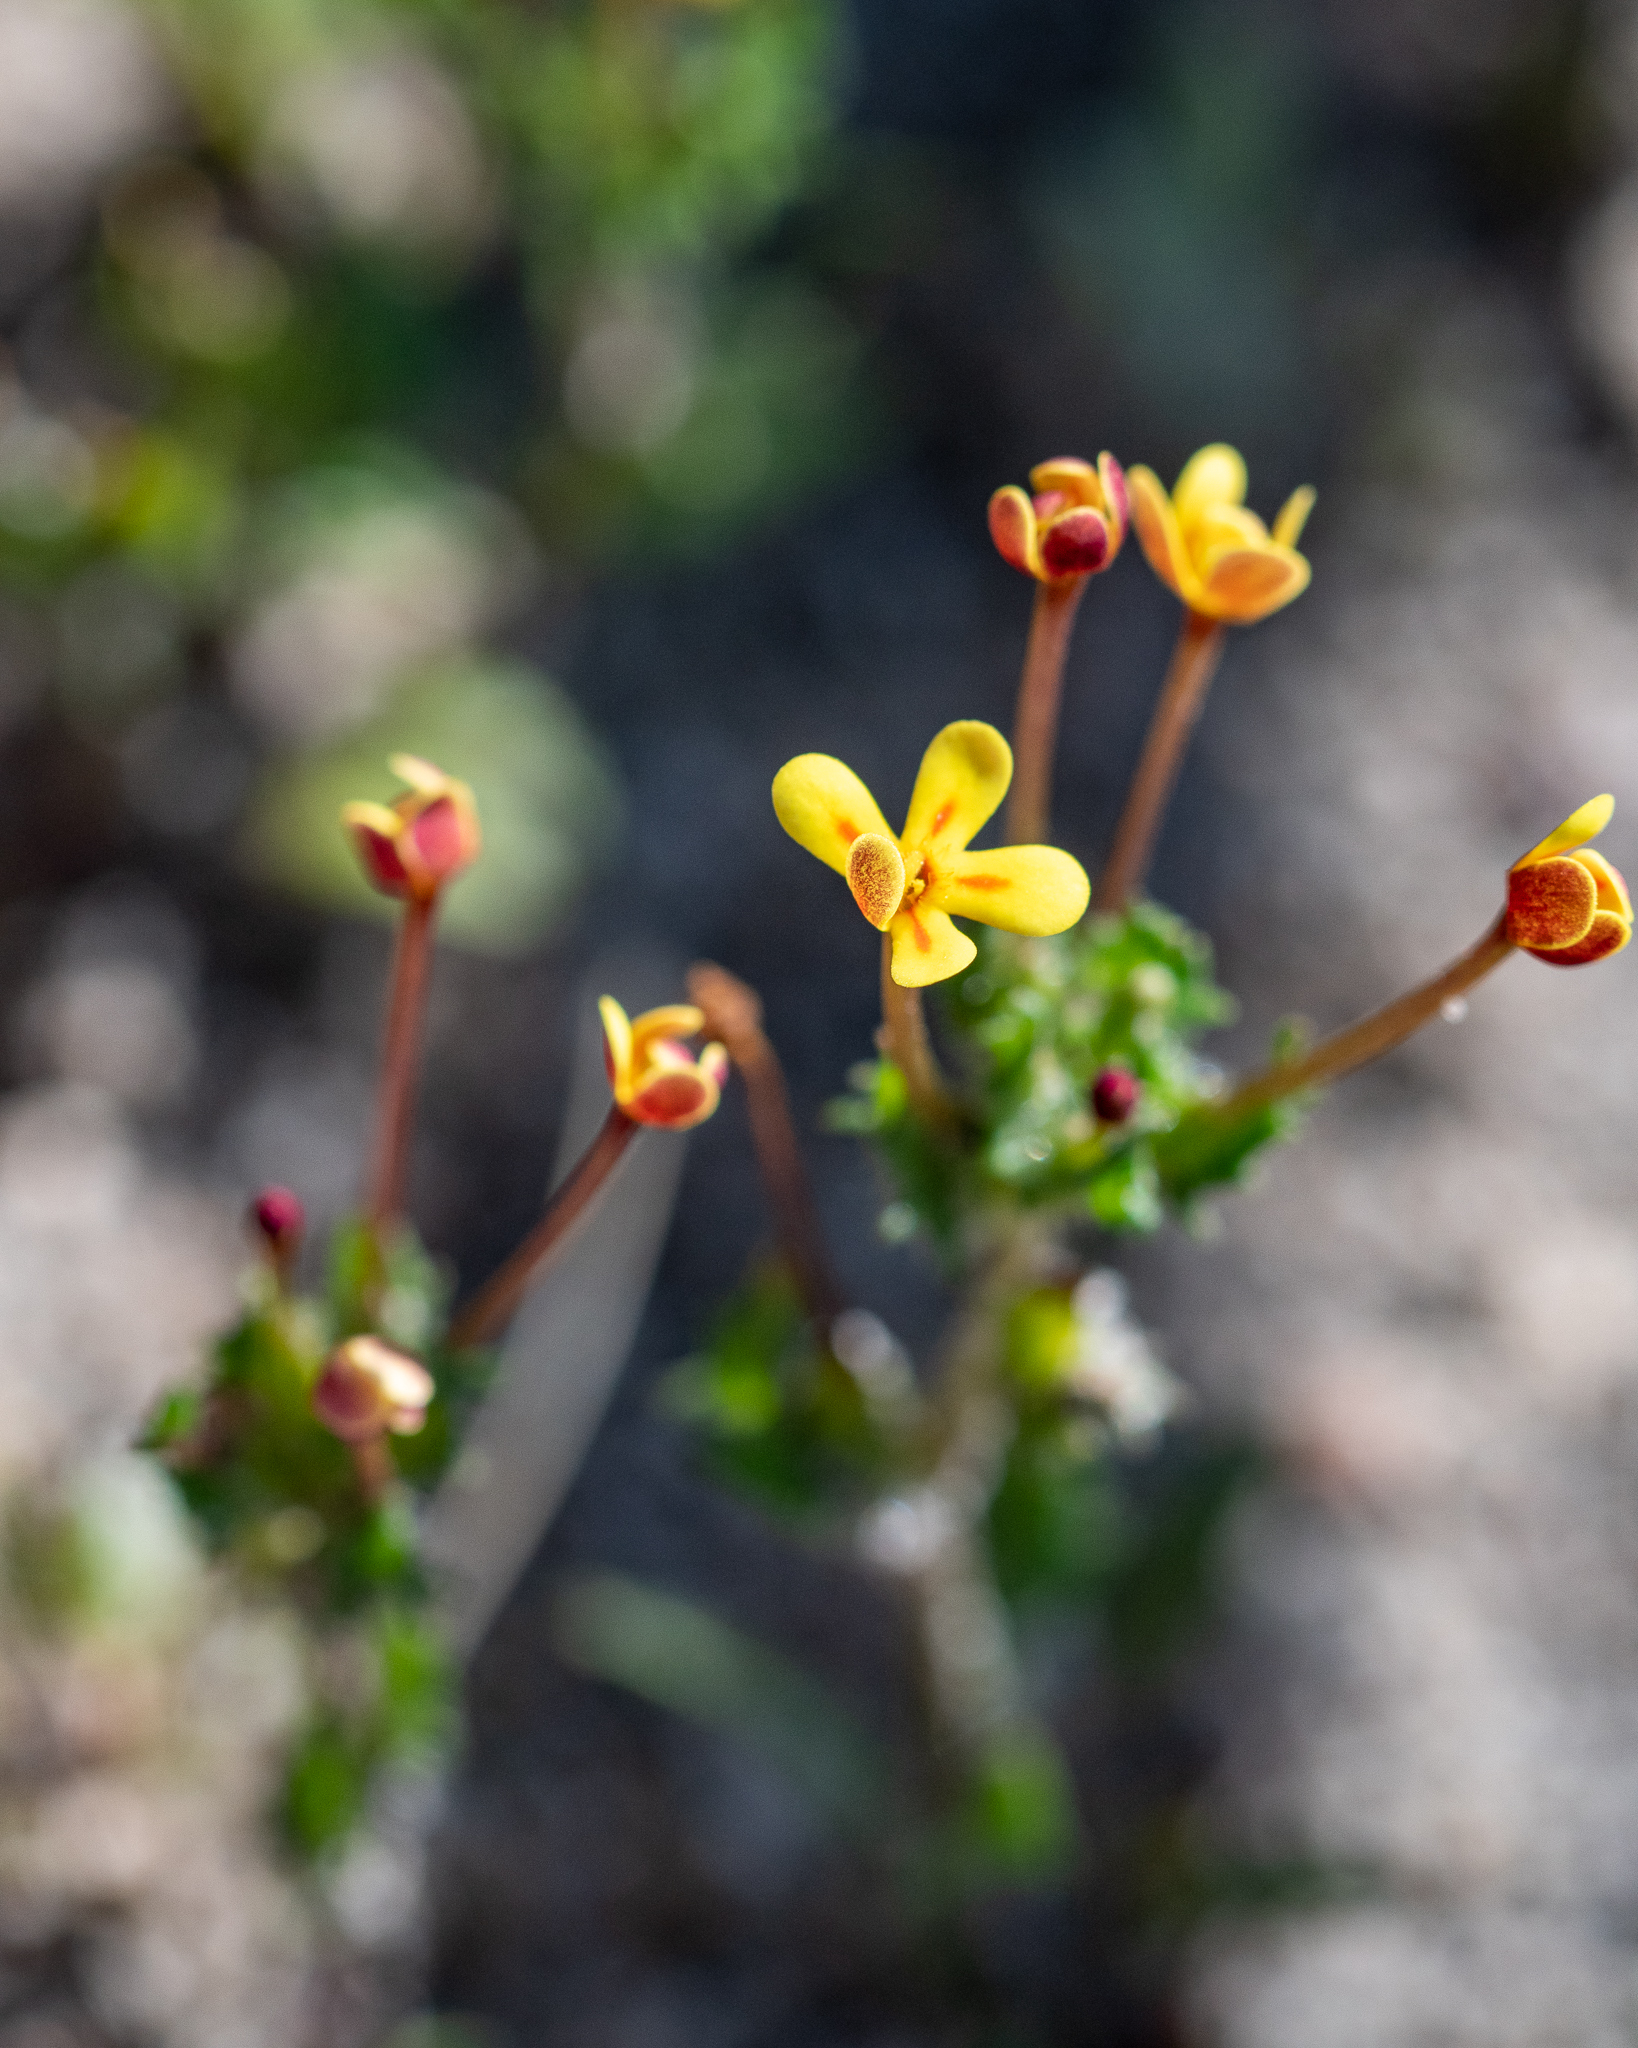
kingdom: Plantae
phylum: Tracheophyta
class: Magnoliopsida
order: Lamiales
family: Scrophulariaceae
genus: Zaluzianskya
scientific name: Zaluzianskya divaricata
